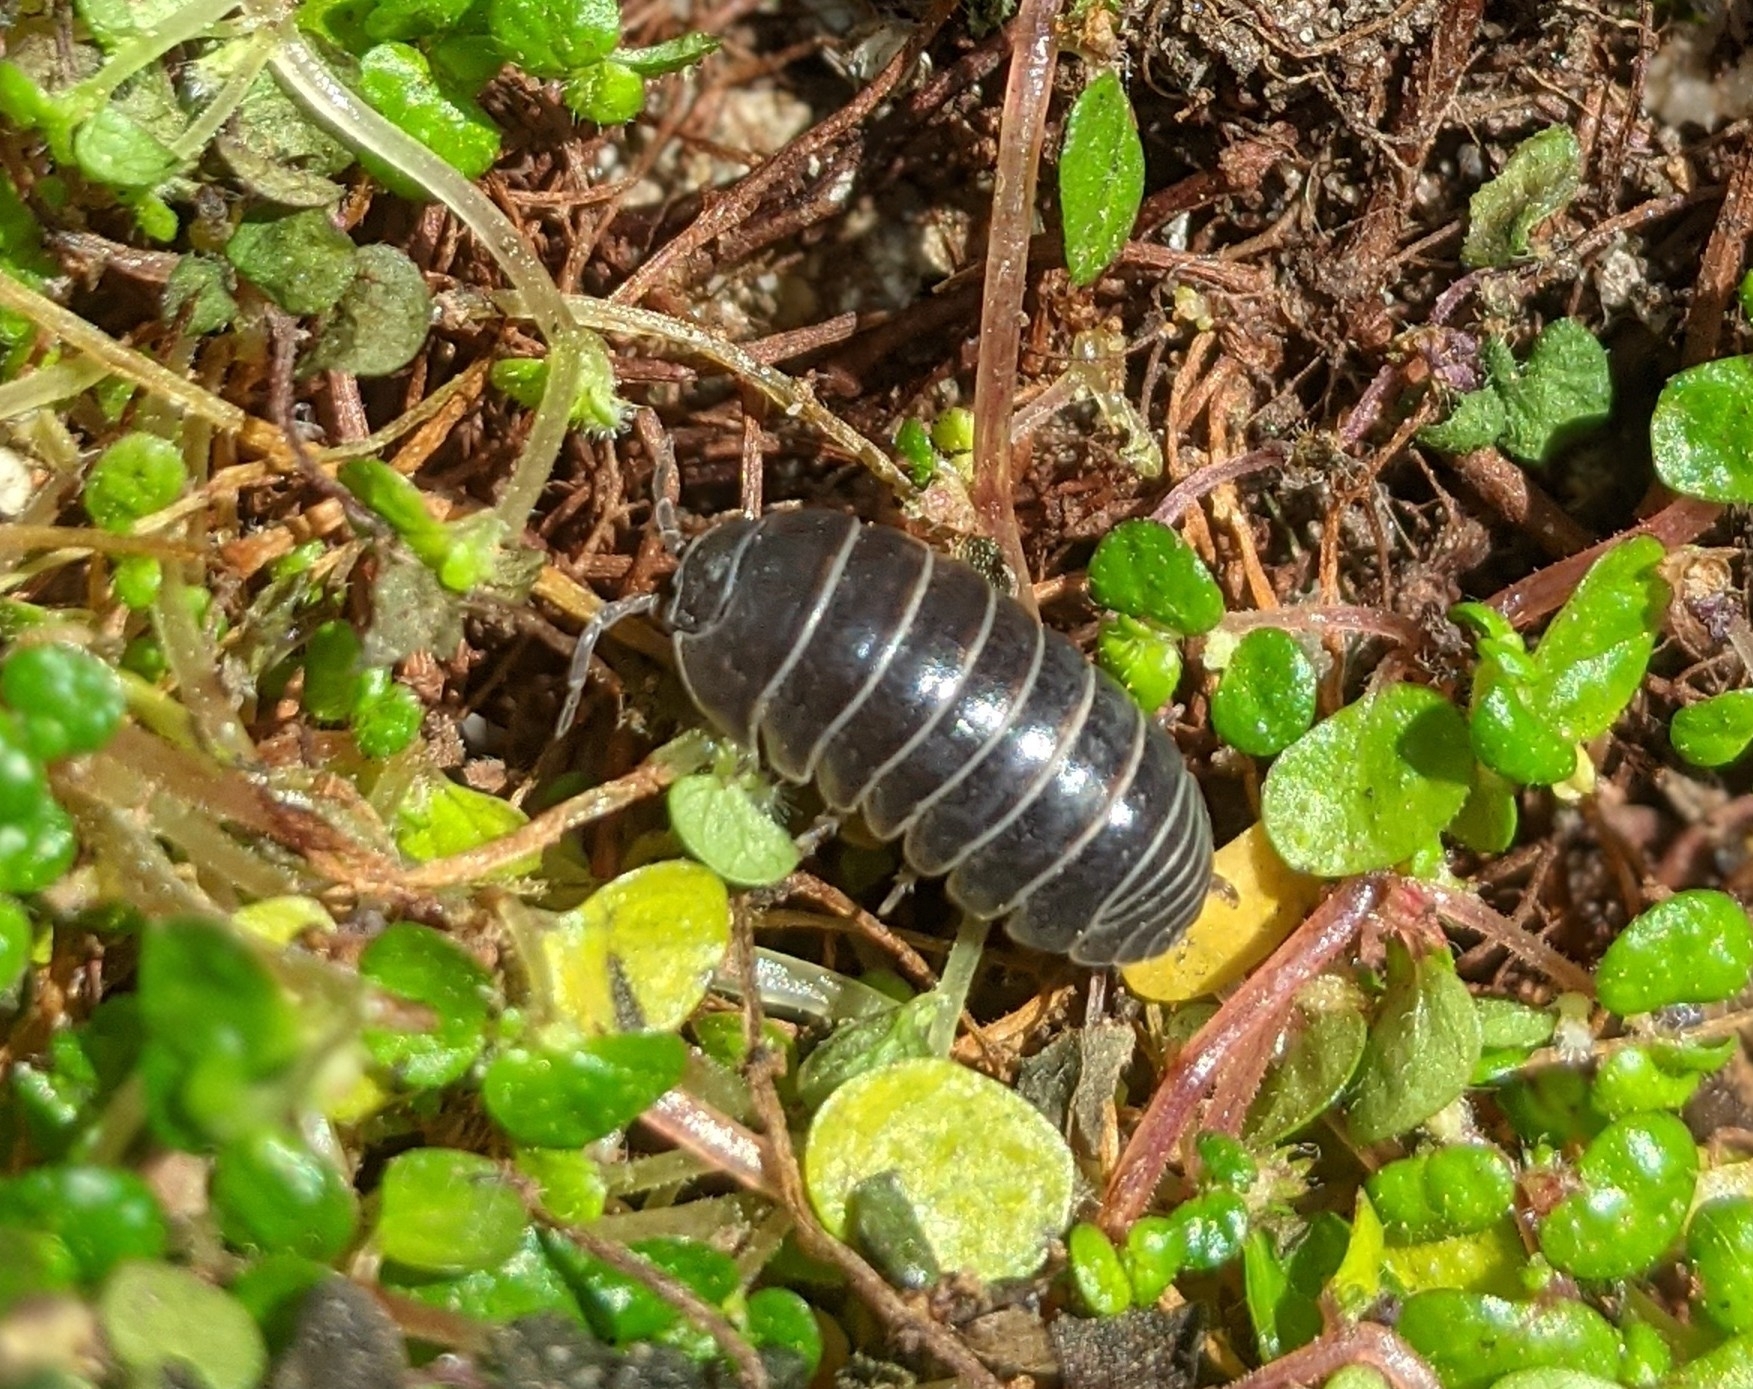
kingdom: Animalia
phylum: Arthropoda
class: Malacostraca
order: Isopoda
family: Armadillidiidae
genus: Armadillidium
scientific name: Armadillidium vulgare
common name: Common pill woodlouse
